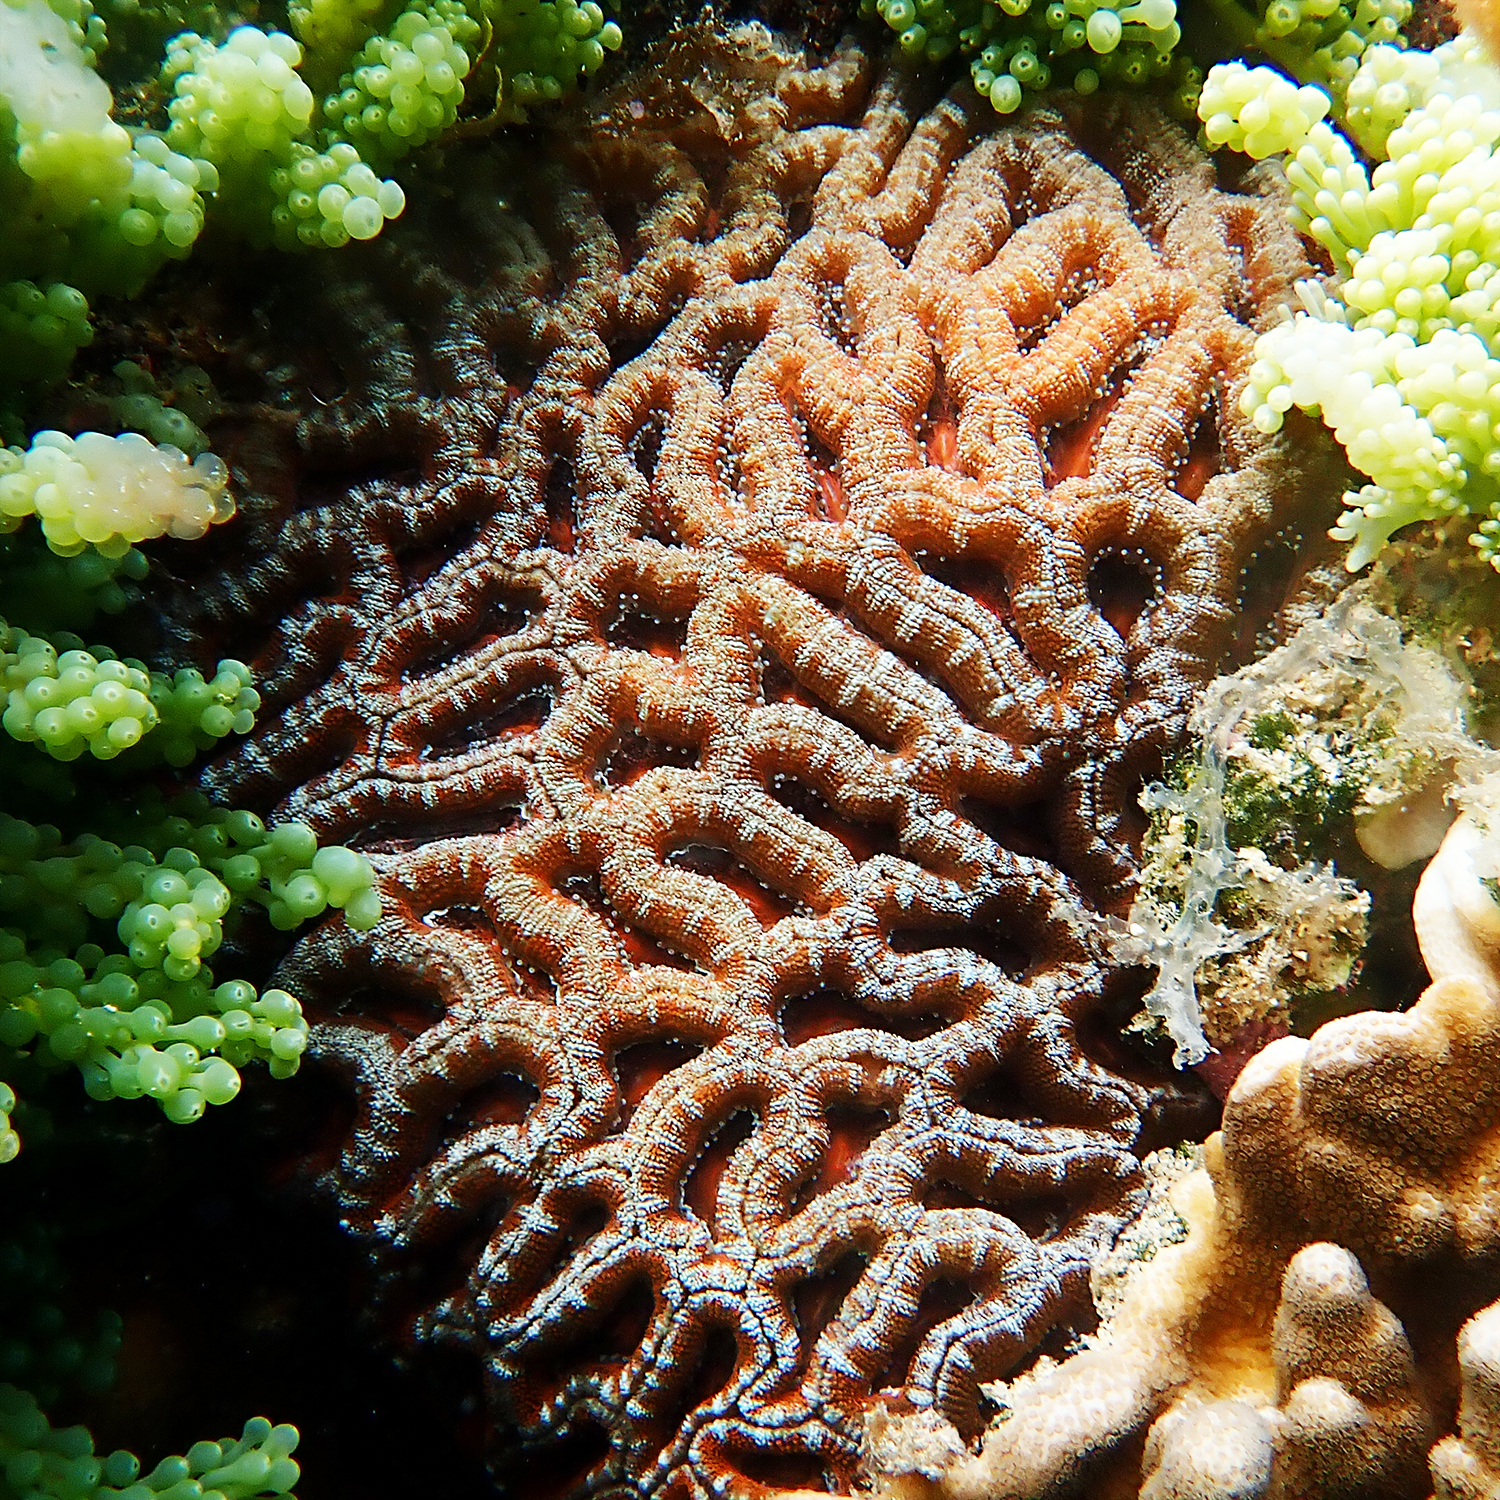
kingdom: Animalia
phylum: Cnidaria
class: Anthozoa
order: Scleractinia
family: Lobophylliidae
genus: Micromussa
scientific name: Micromussa lordhowensis
